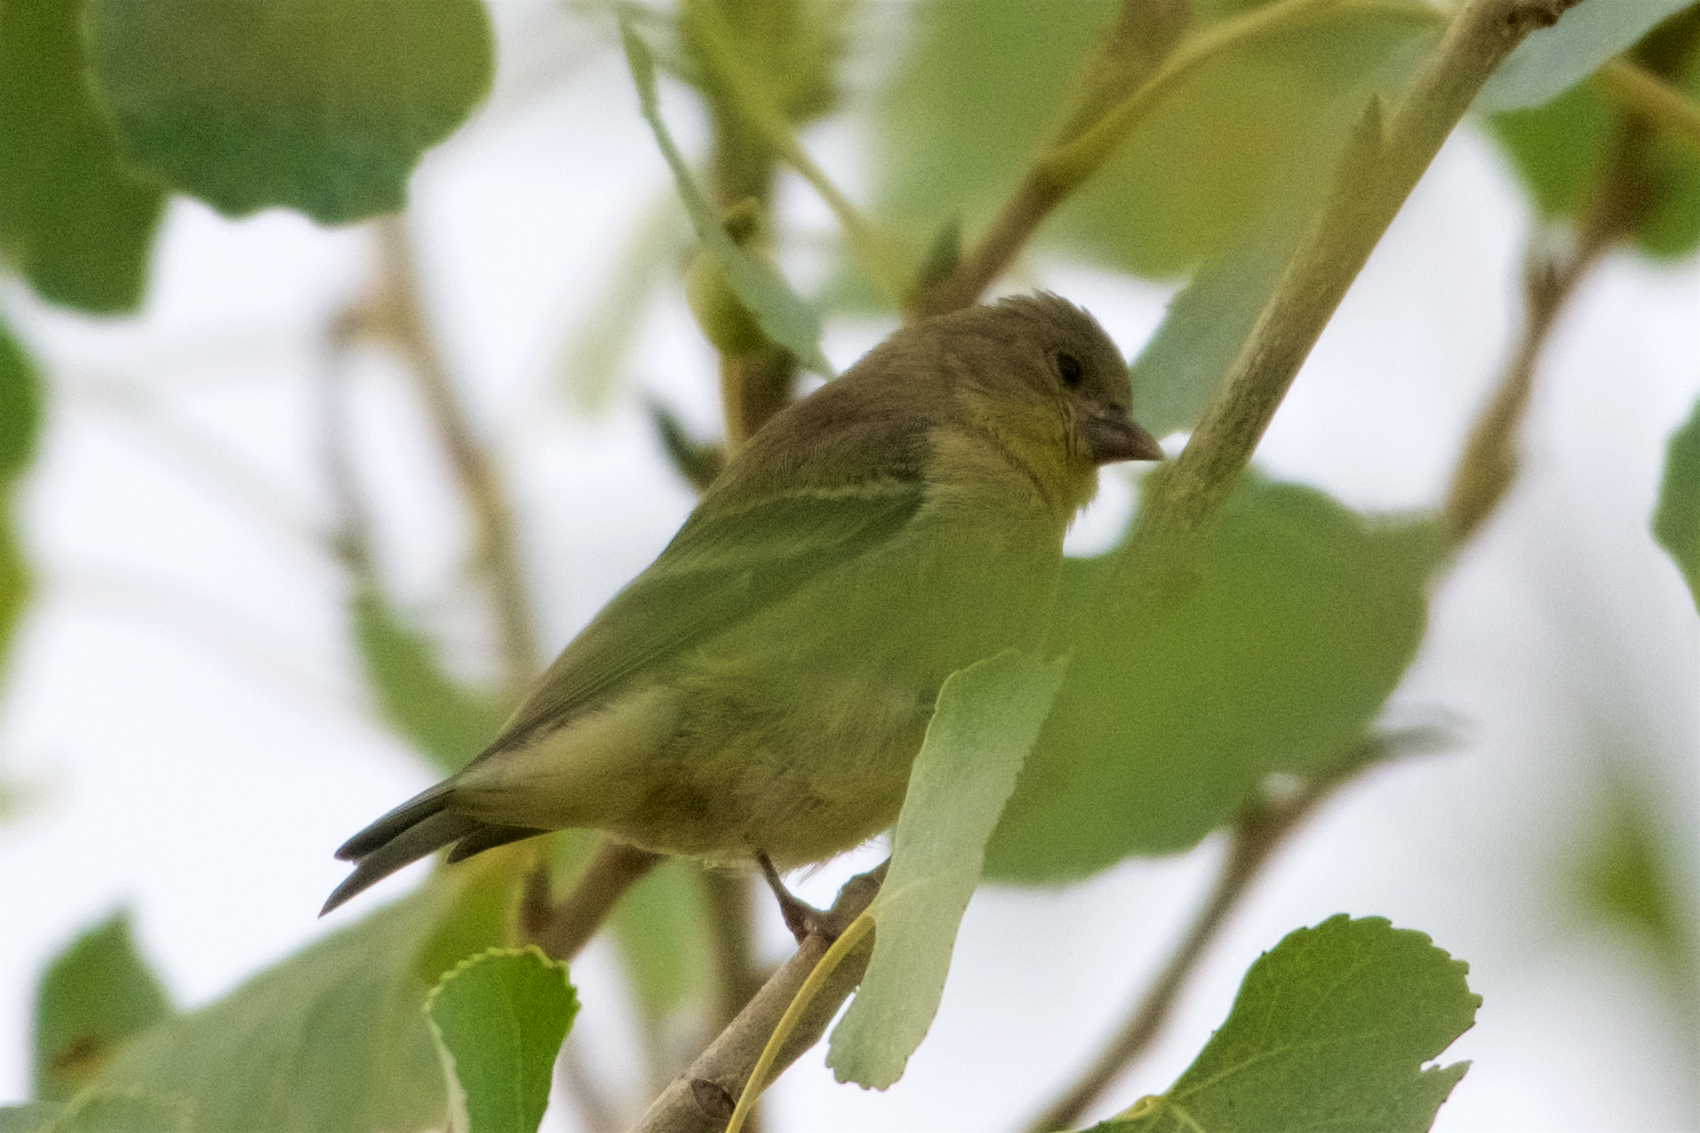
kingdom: Animalia
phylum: Chordata
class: Aves
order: Passeriformes
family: Fringillidae
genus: Spinus
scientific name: Spinus psaltria
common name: Lesser goldfinch
